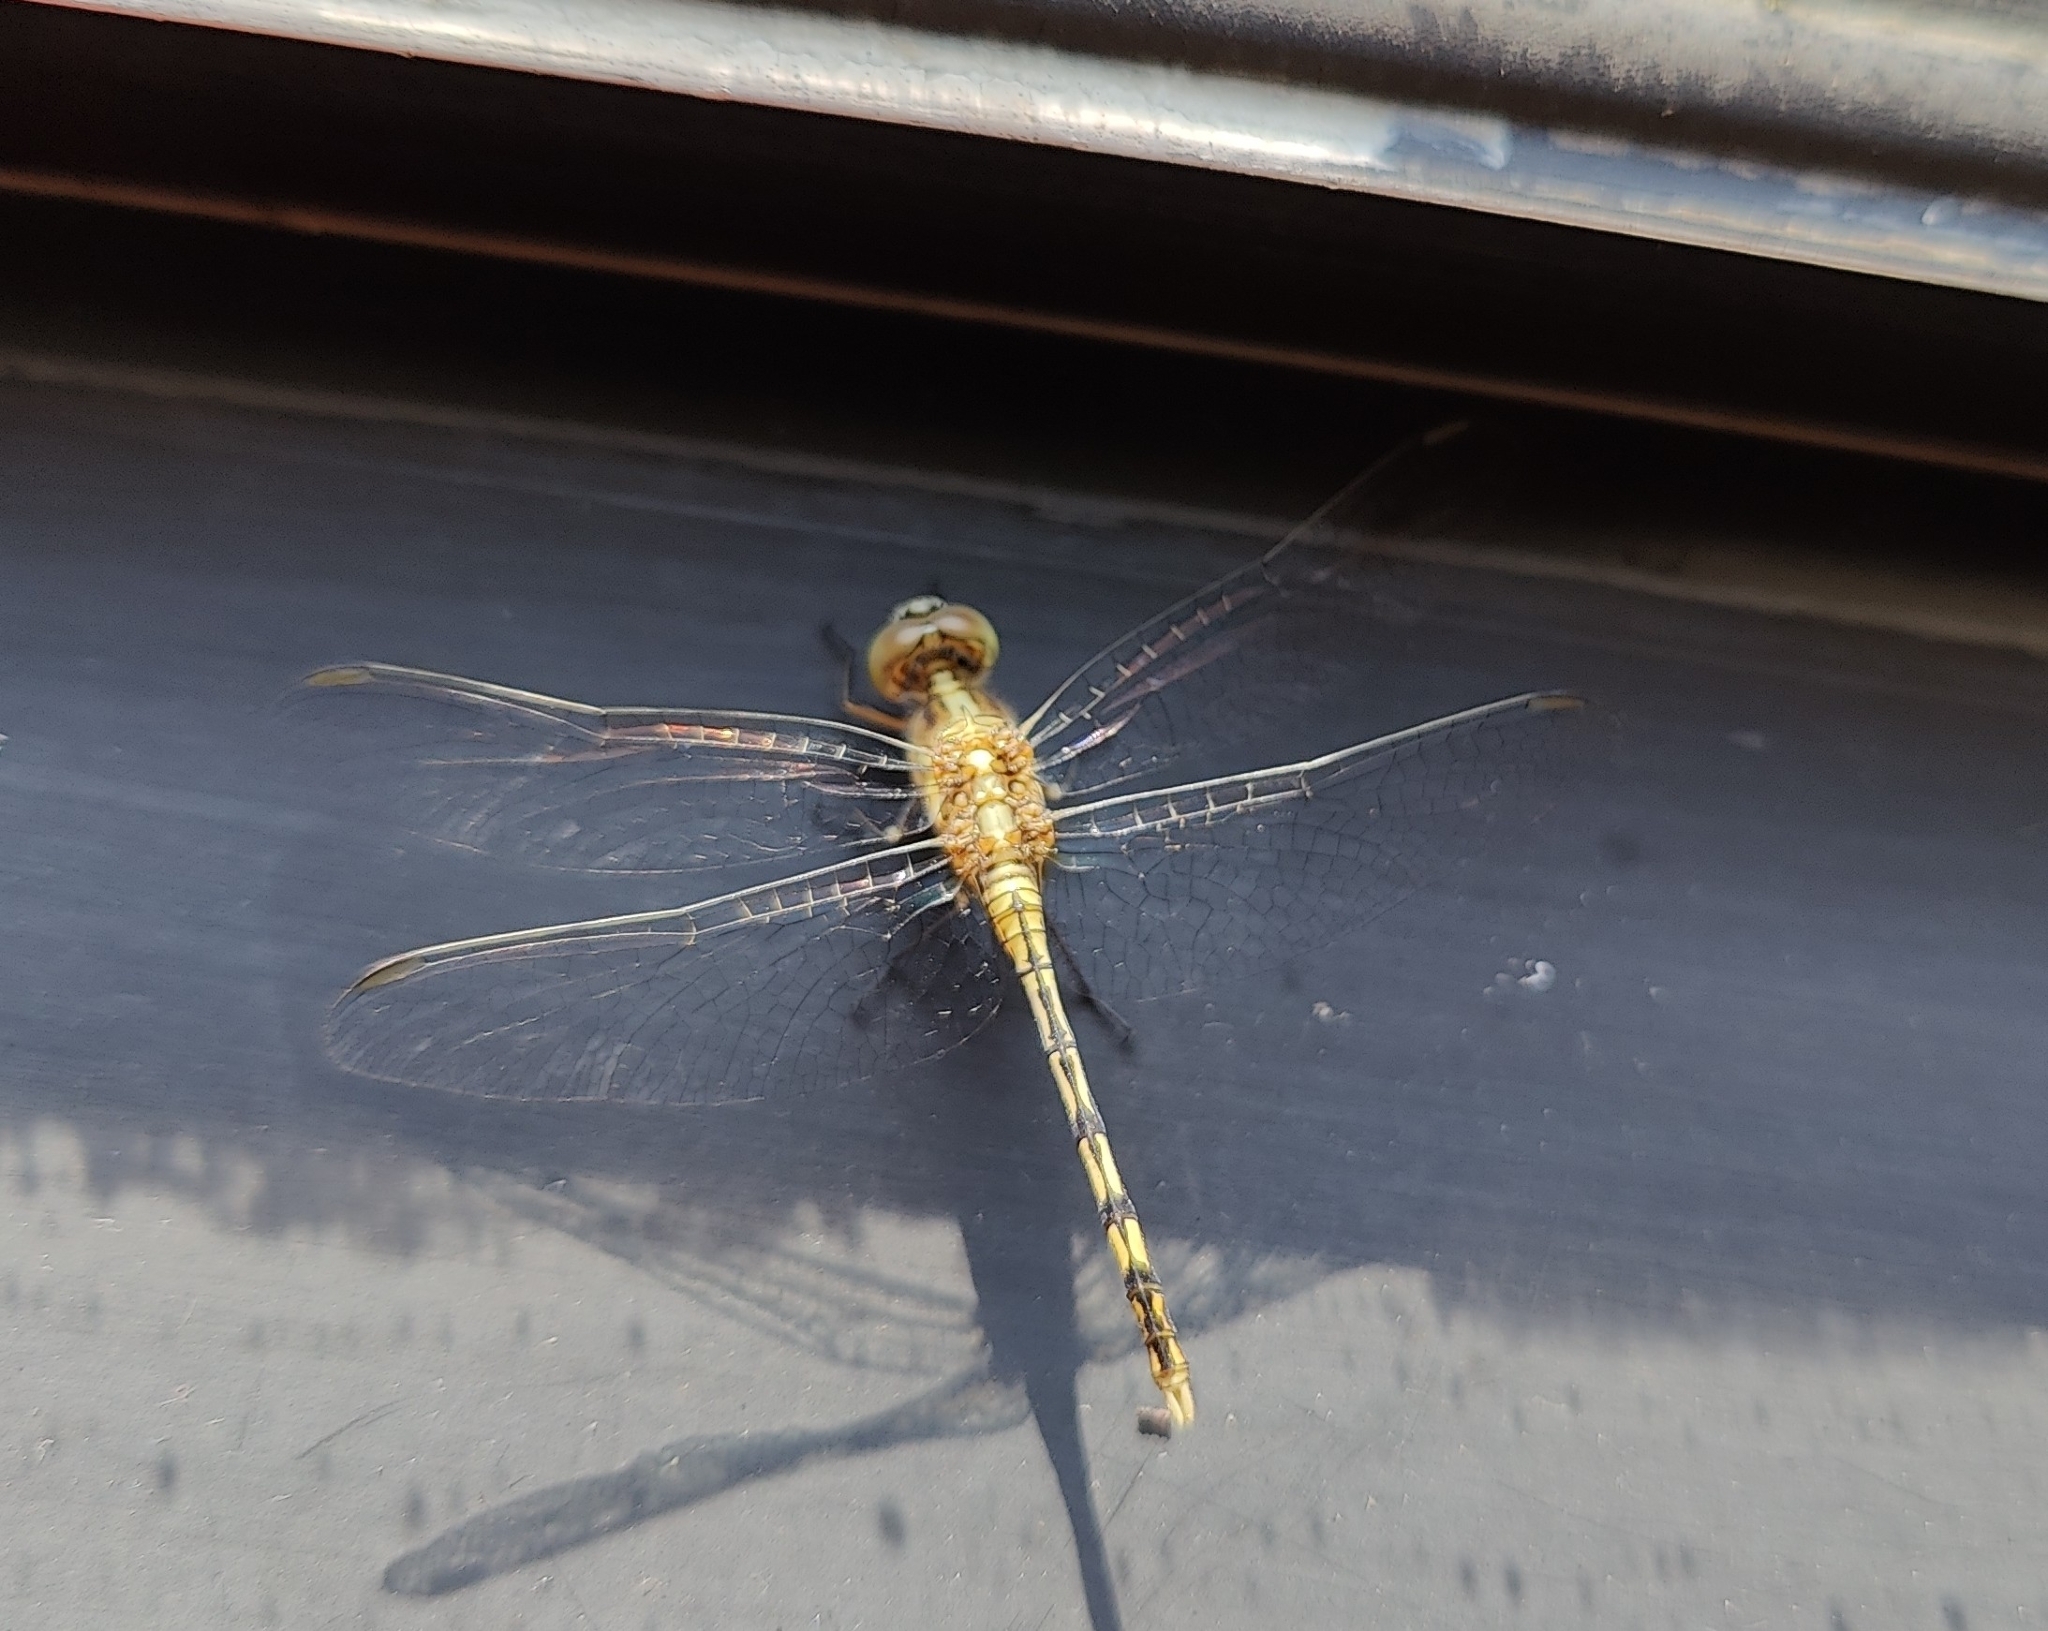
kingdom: Animalia
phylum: Arthropoda
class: Insecta
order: Odonata
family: Libellulidae
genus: Diplacodes
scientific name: Diplacodes trivialis
